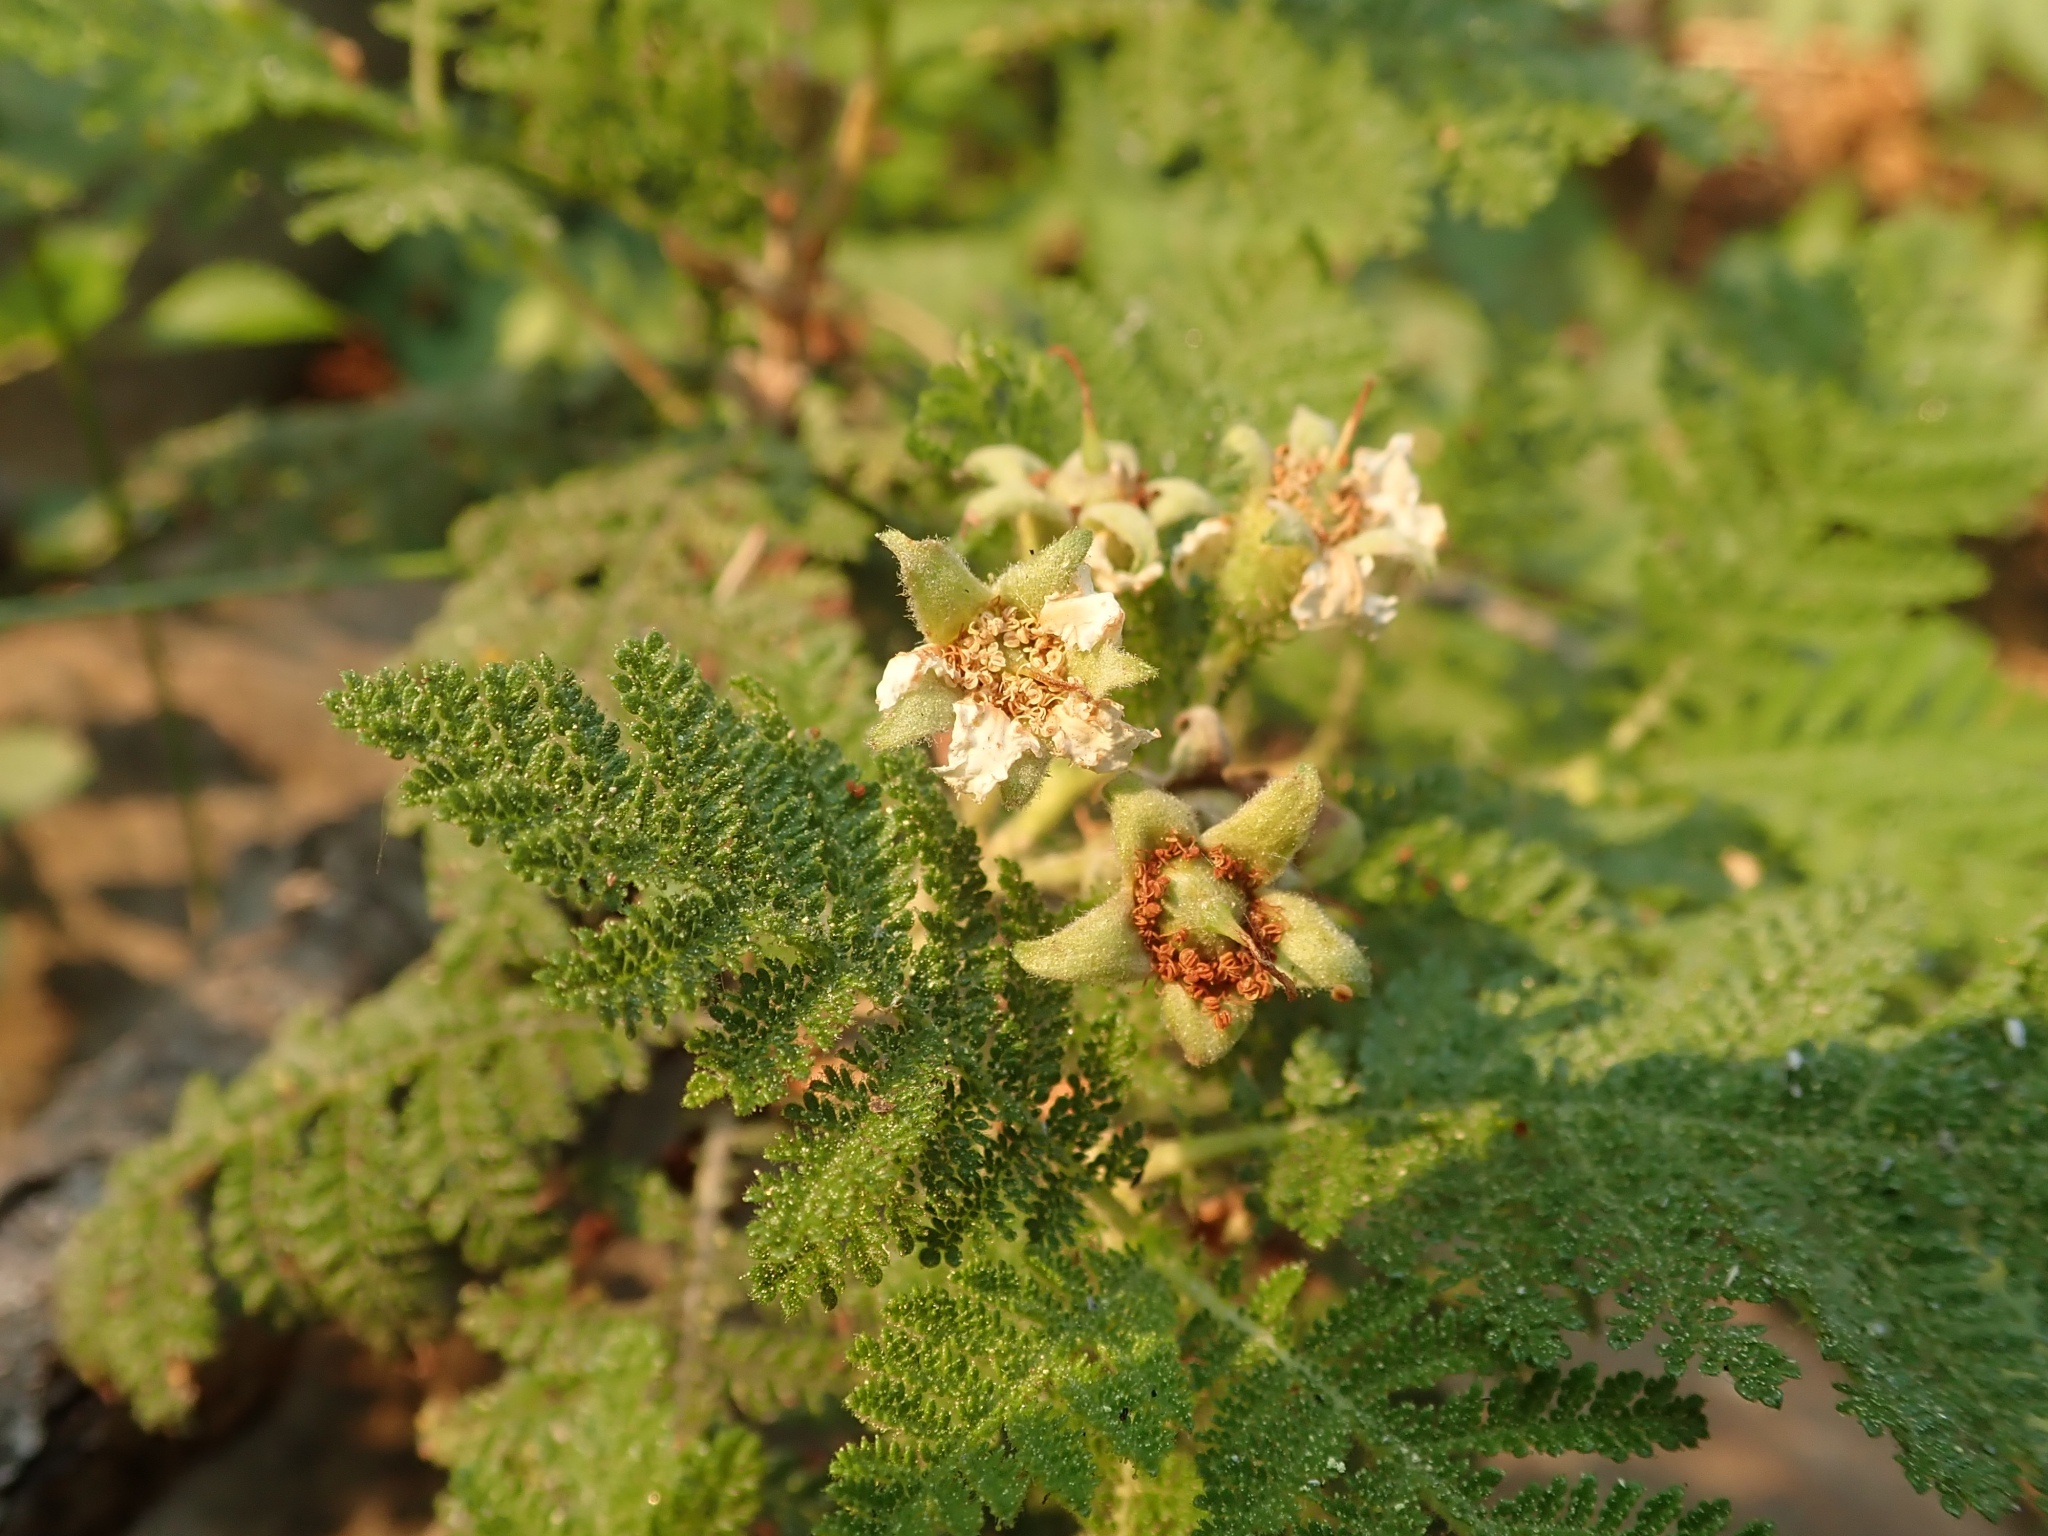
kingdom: Plantae
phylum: Tracheophyta
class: Magnoliopsida
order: Rosales
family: Rosaceae
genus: Chamaebatia
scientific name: Chamaebatia foliolosa
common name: Mountain misery
